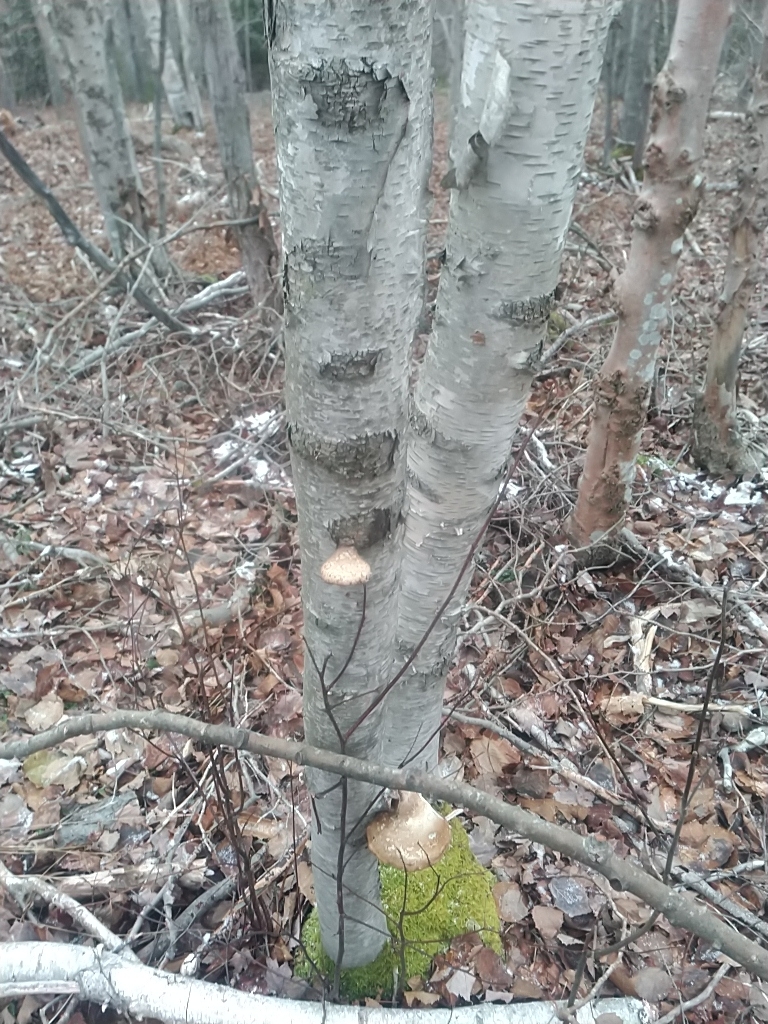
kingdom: Fungi
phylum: Basidiomycota
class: Agaricomycetes
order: Polyporales
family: Fomitopsidaceae
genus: Fomitopsis
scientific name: Fomitopsis betulina
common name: Birch polypore
